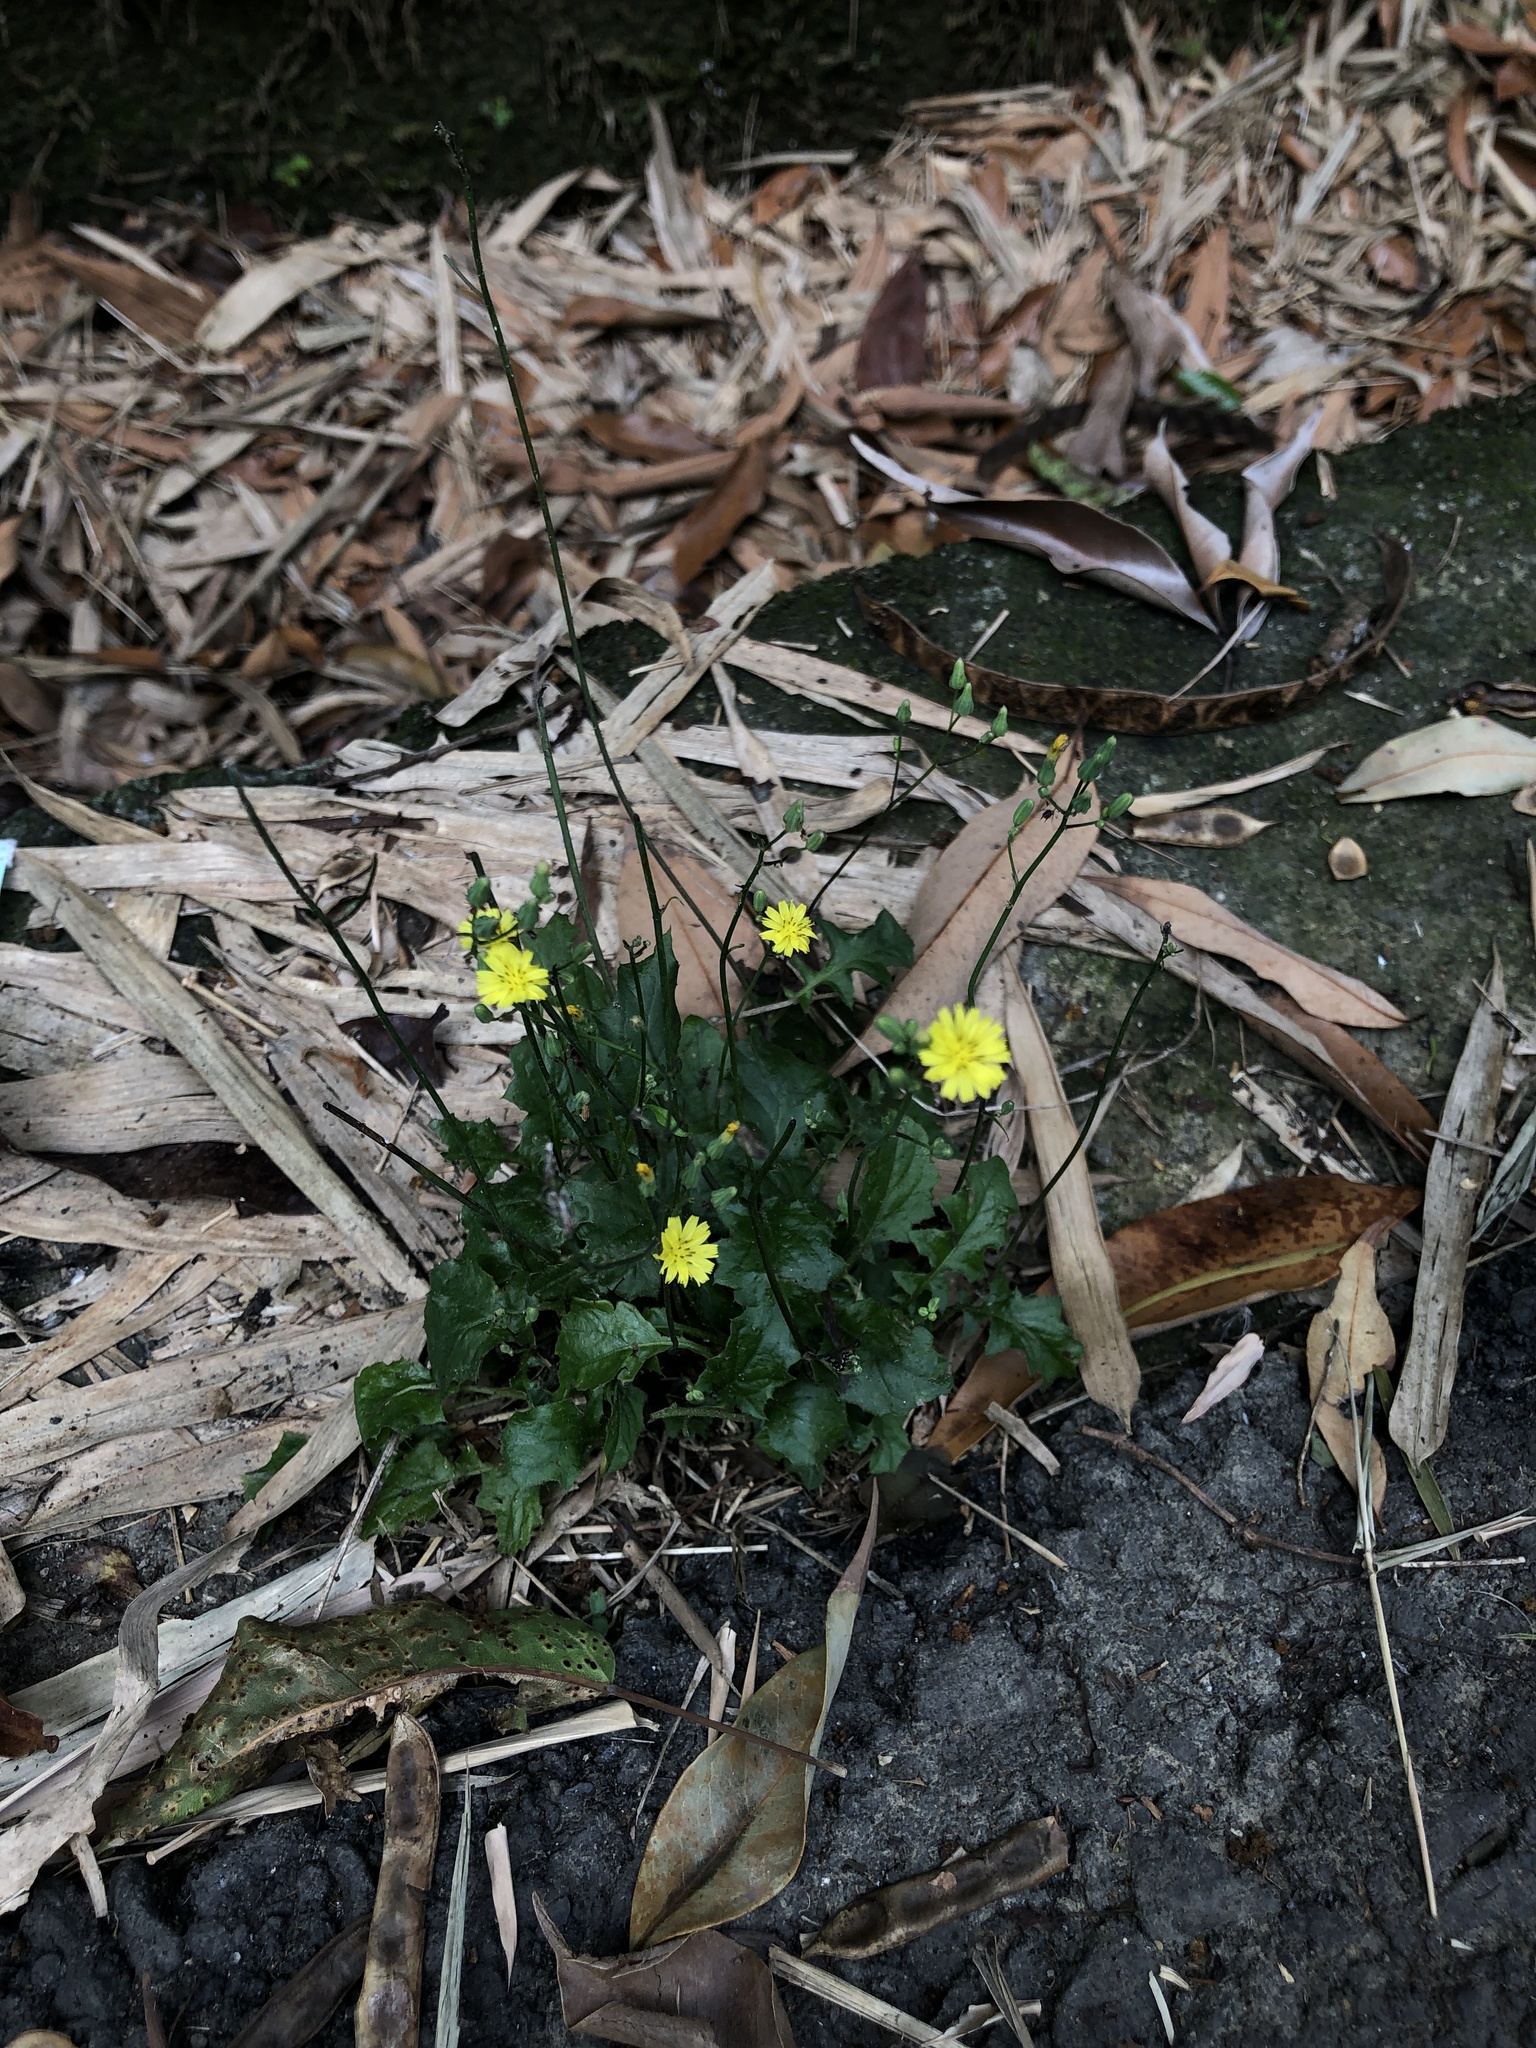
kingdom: Plantae
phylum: Tracheophyta
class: Magnoliopsida
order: Asterales
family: Asteraceae
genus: Youngia
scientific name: Youngia japonica
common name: Oriental false hawksbeard
